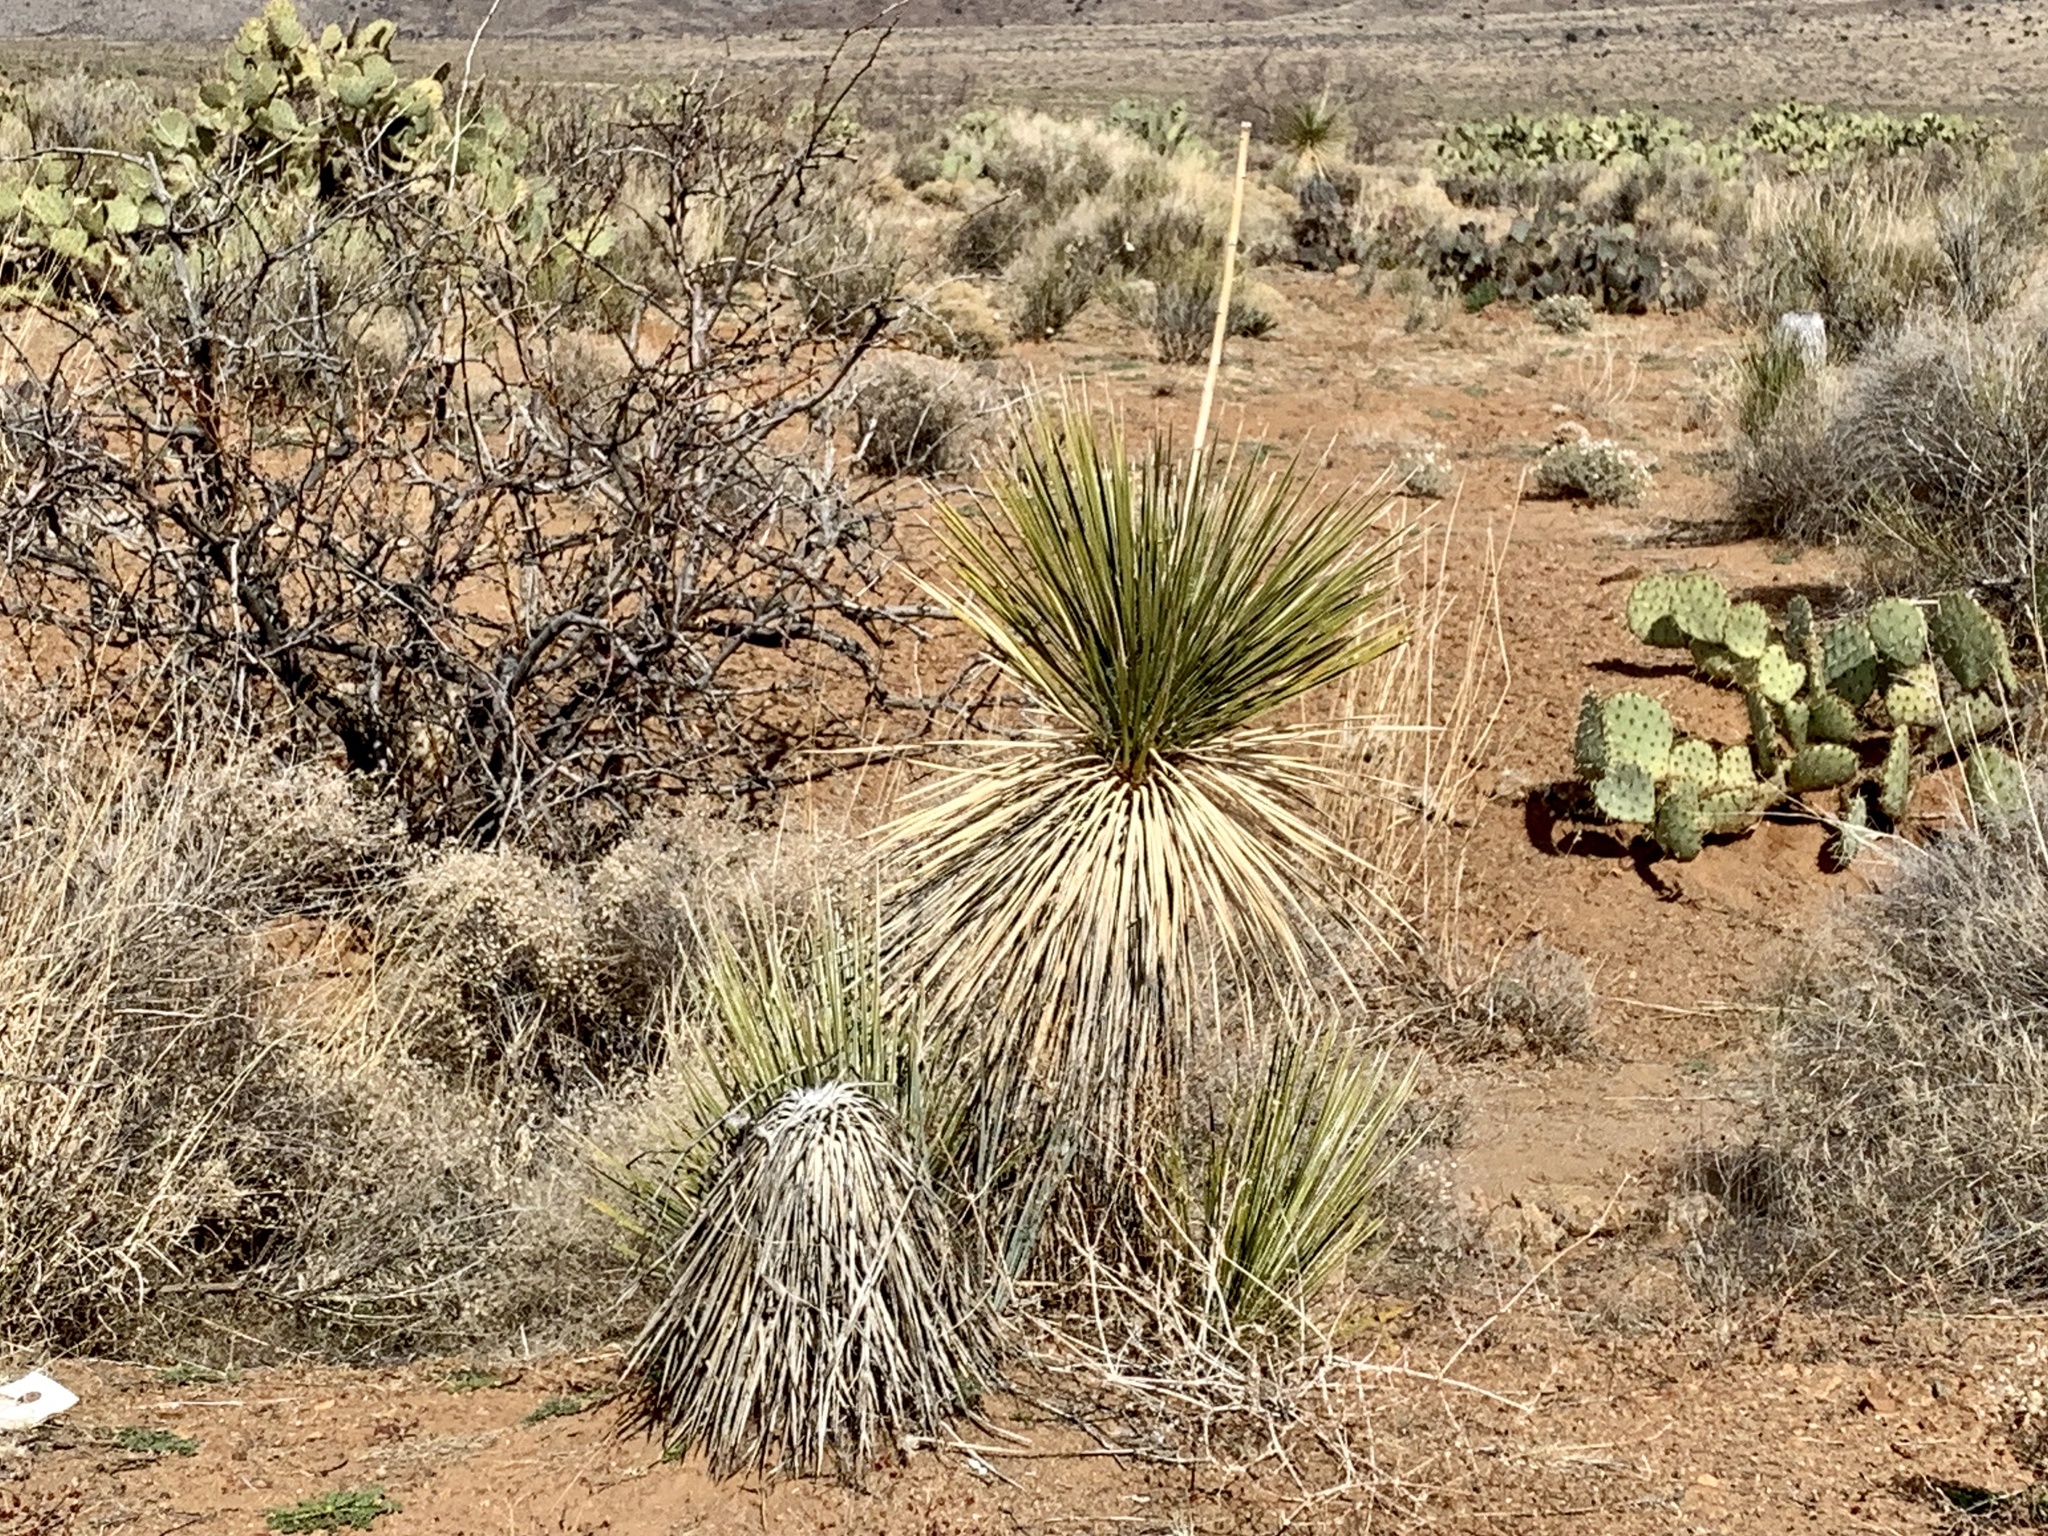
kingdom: Plantae
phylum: Tracheophyta
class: Liliopsida
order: Asparagales
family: Asparagaceae
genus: Yucca
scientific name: Yucca elata
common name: Palmella
